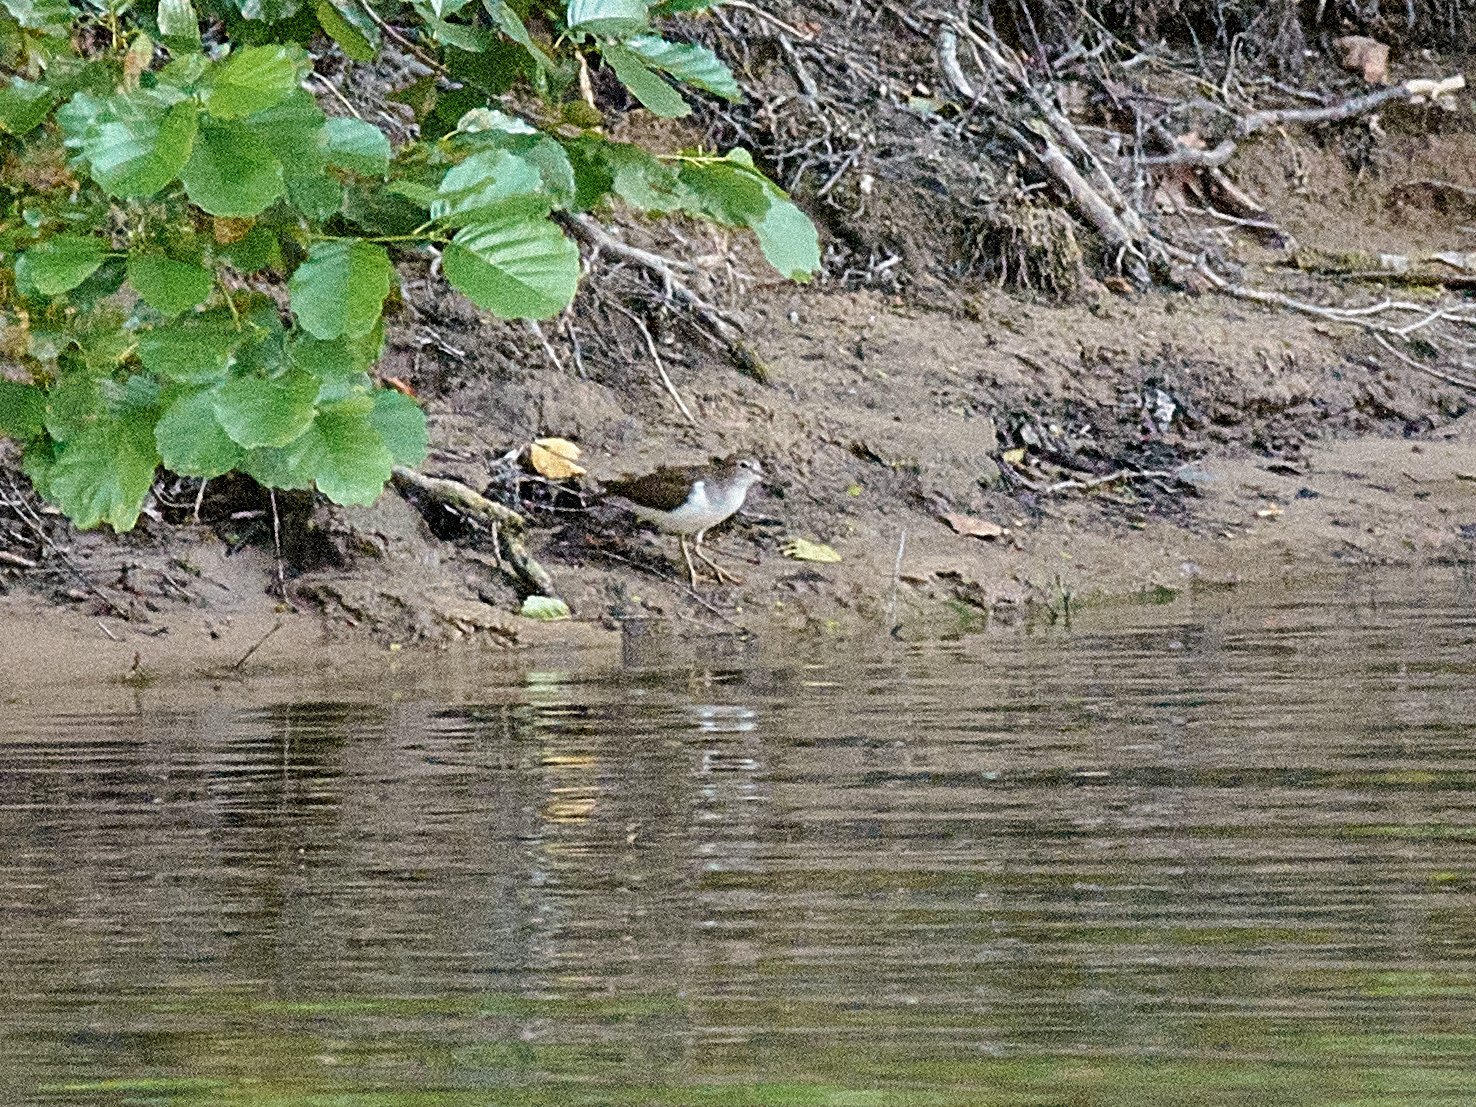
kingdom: Animalia
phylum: Chordata
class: Aves
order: Charadriiformes
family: Scolopacidae
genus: Actitis
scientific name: Actitis hypoleucos
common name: Common sandpiper
